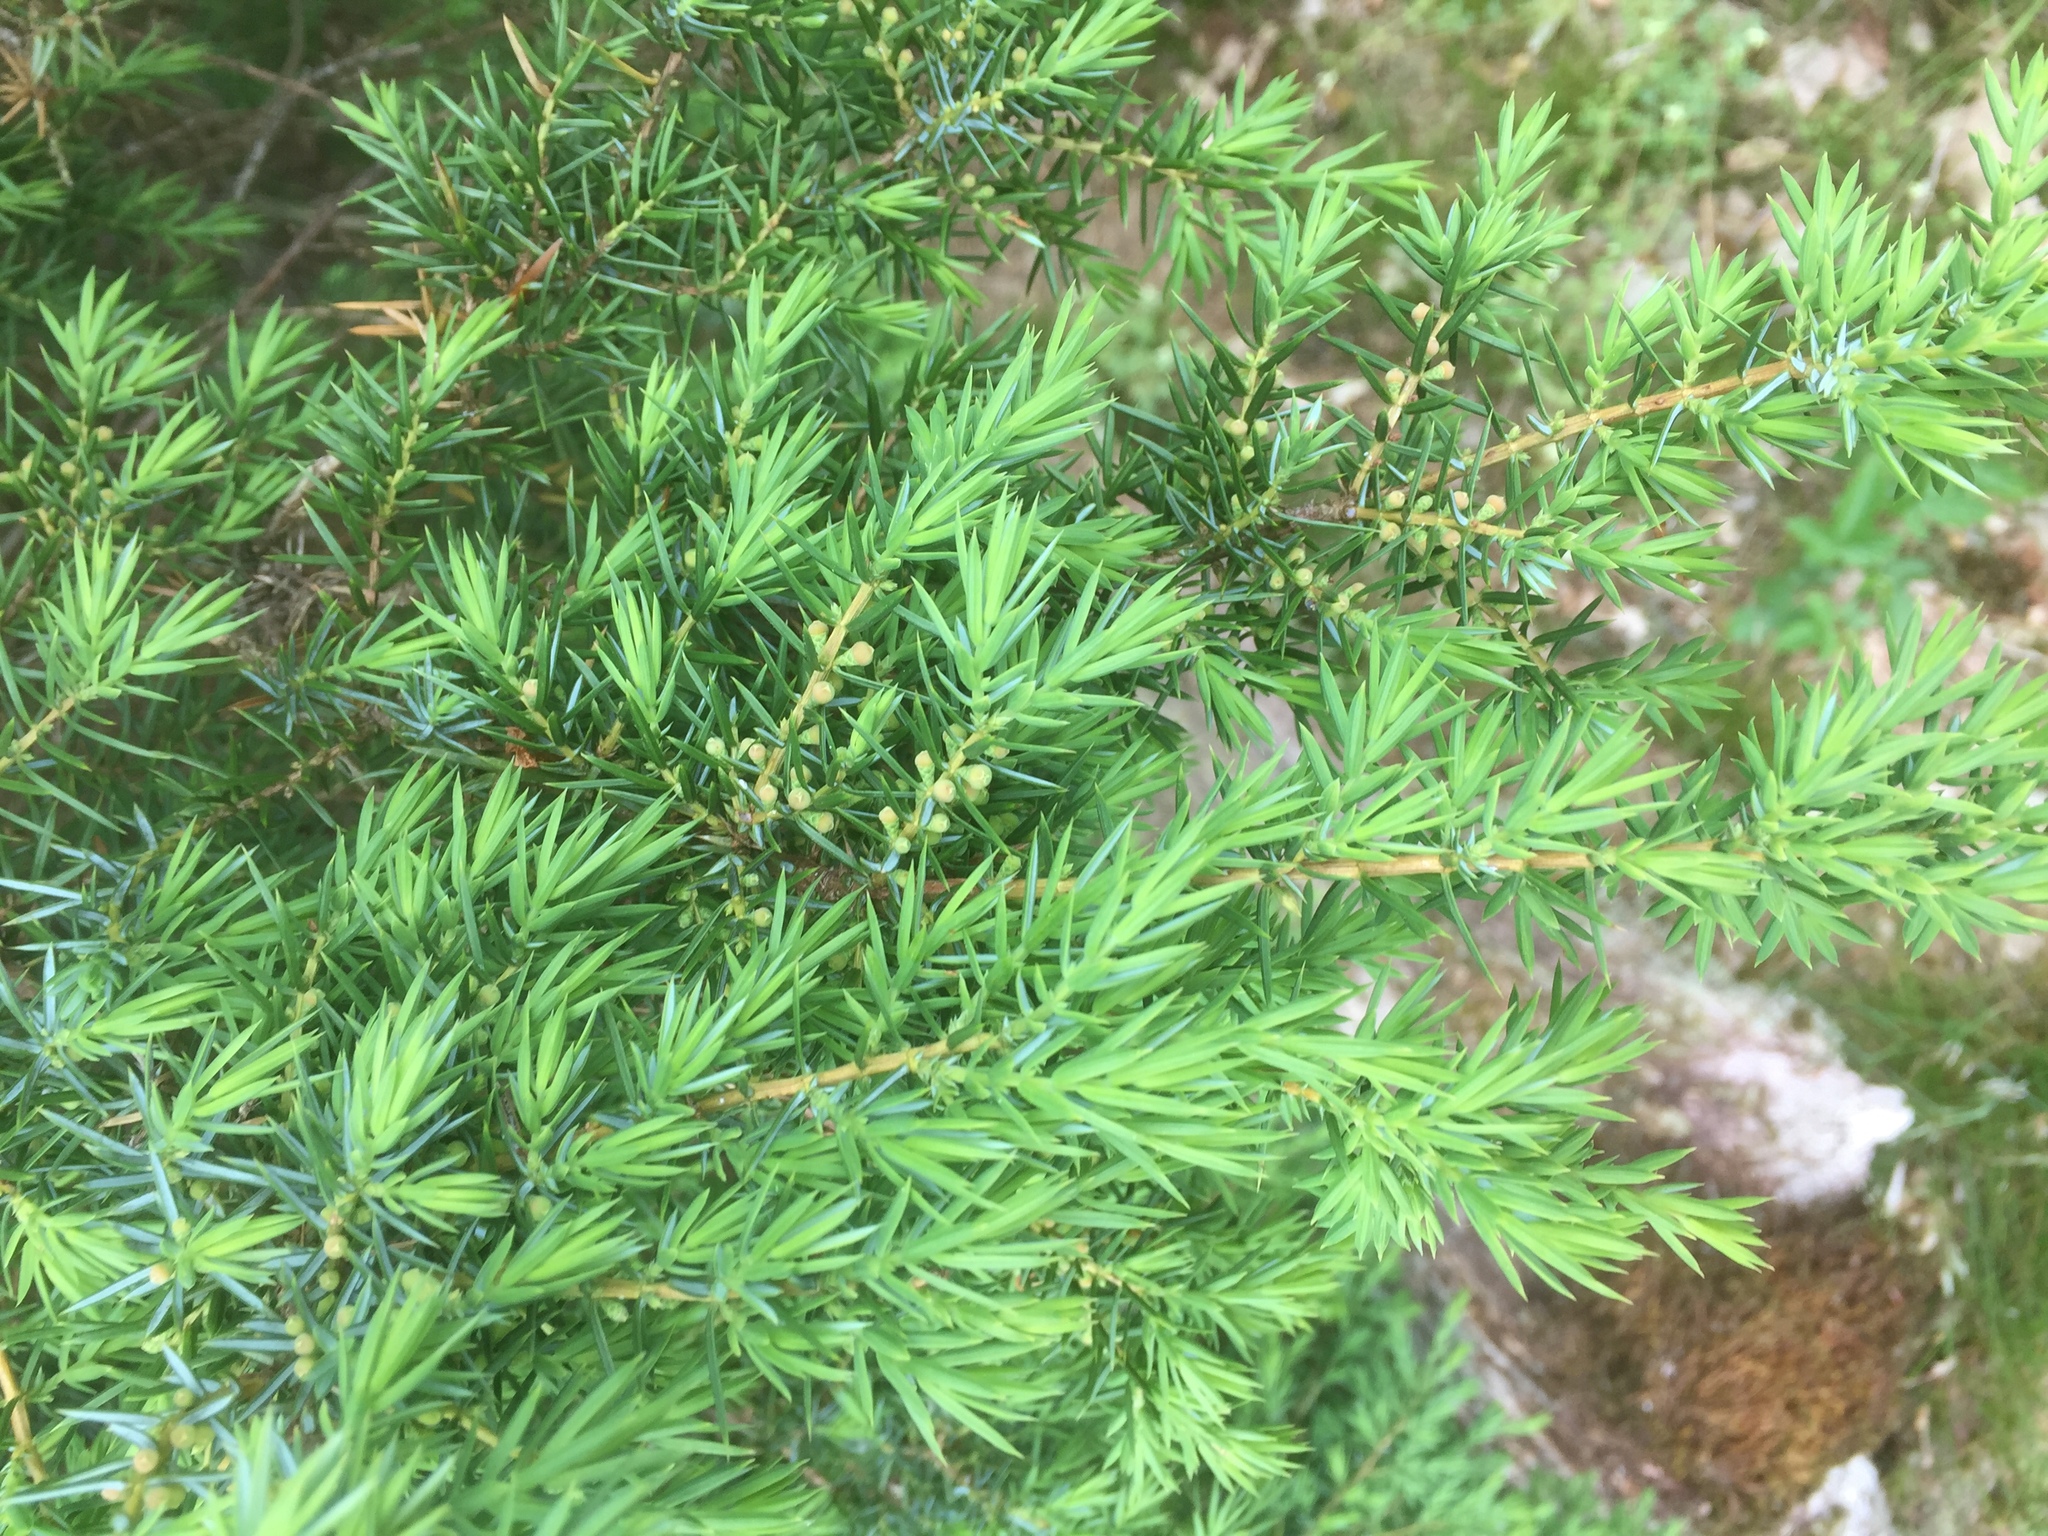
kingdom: Plantae
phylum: Tracheophyta
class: Pinopsida
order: Pinales
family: Cupressaceae
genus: Juniperus
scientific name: Juniperus communis
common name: Common juniper
